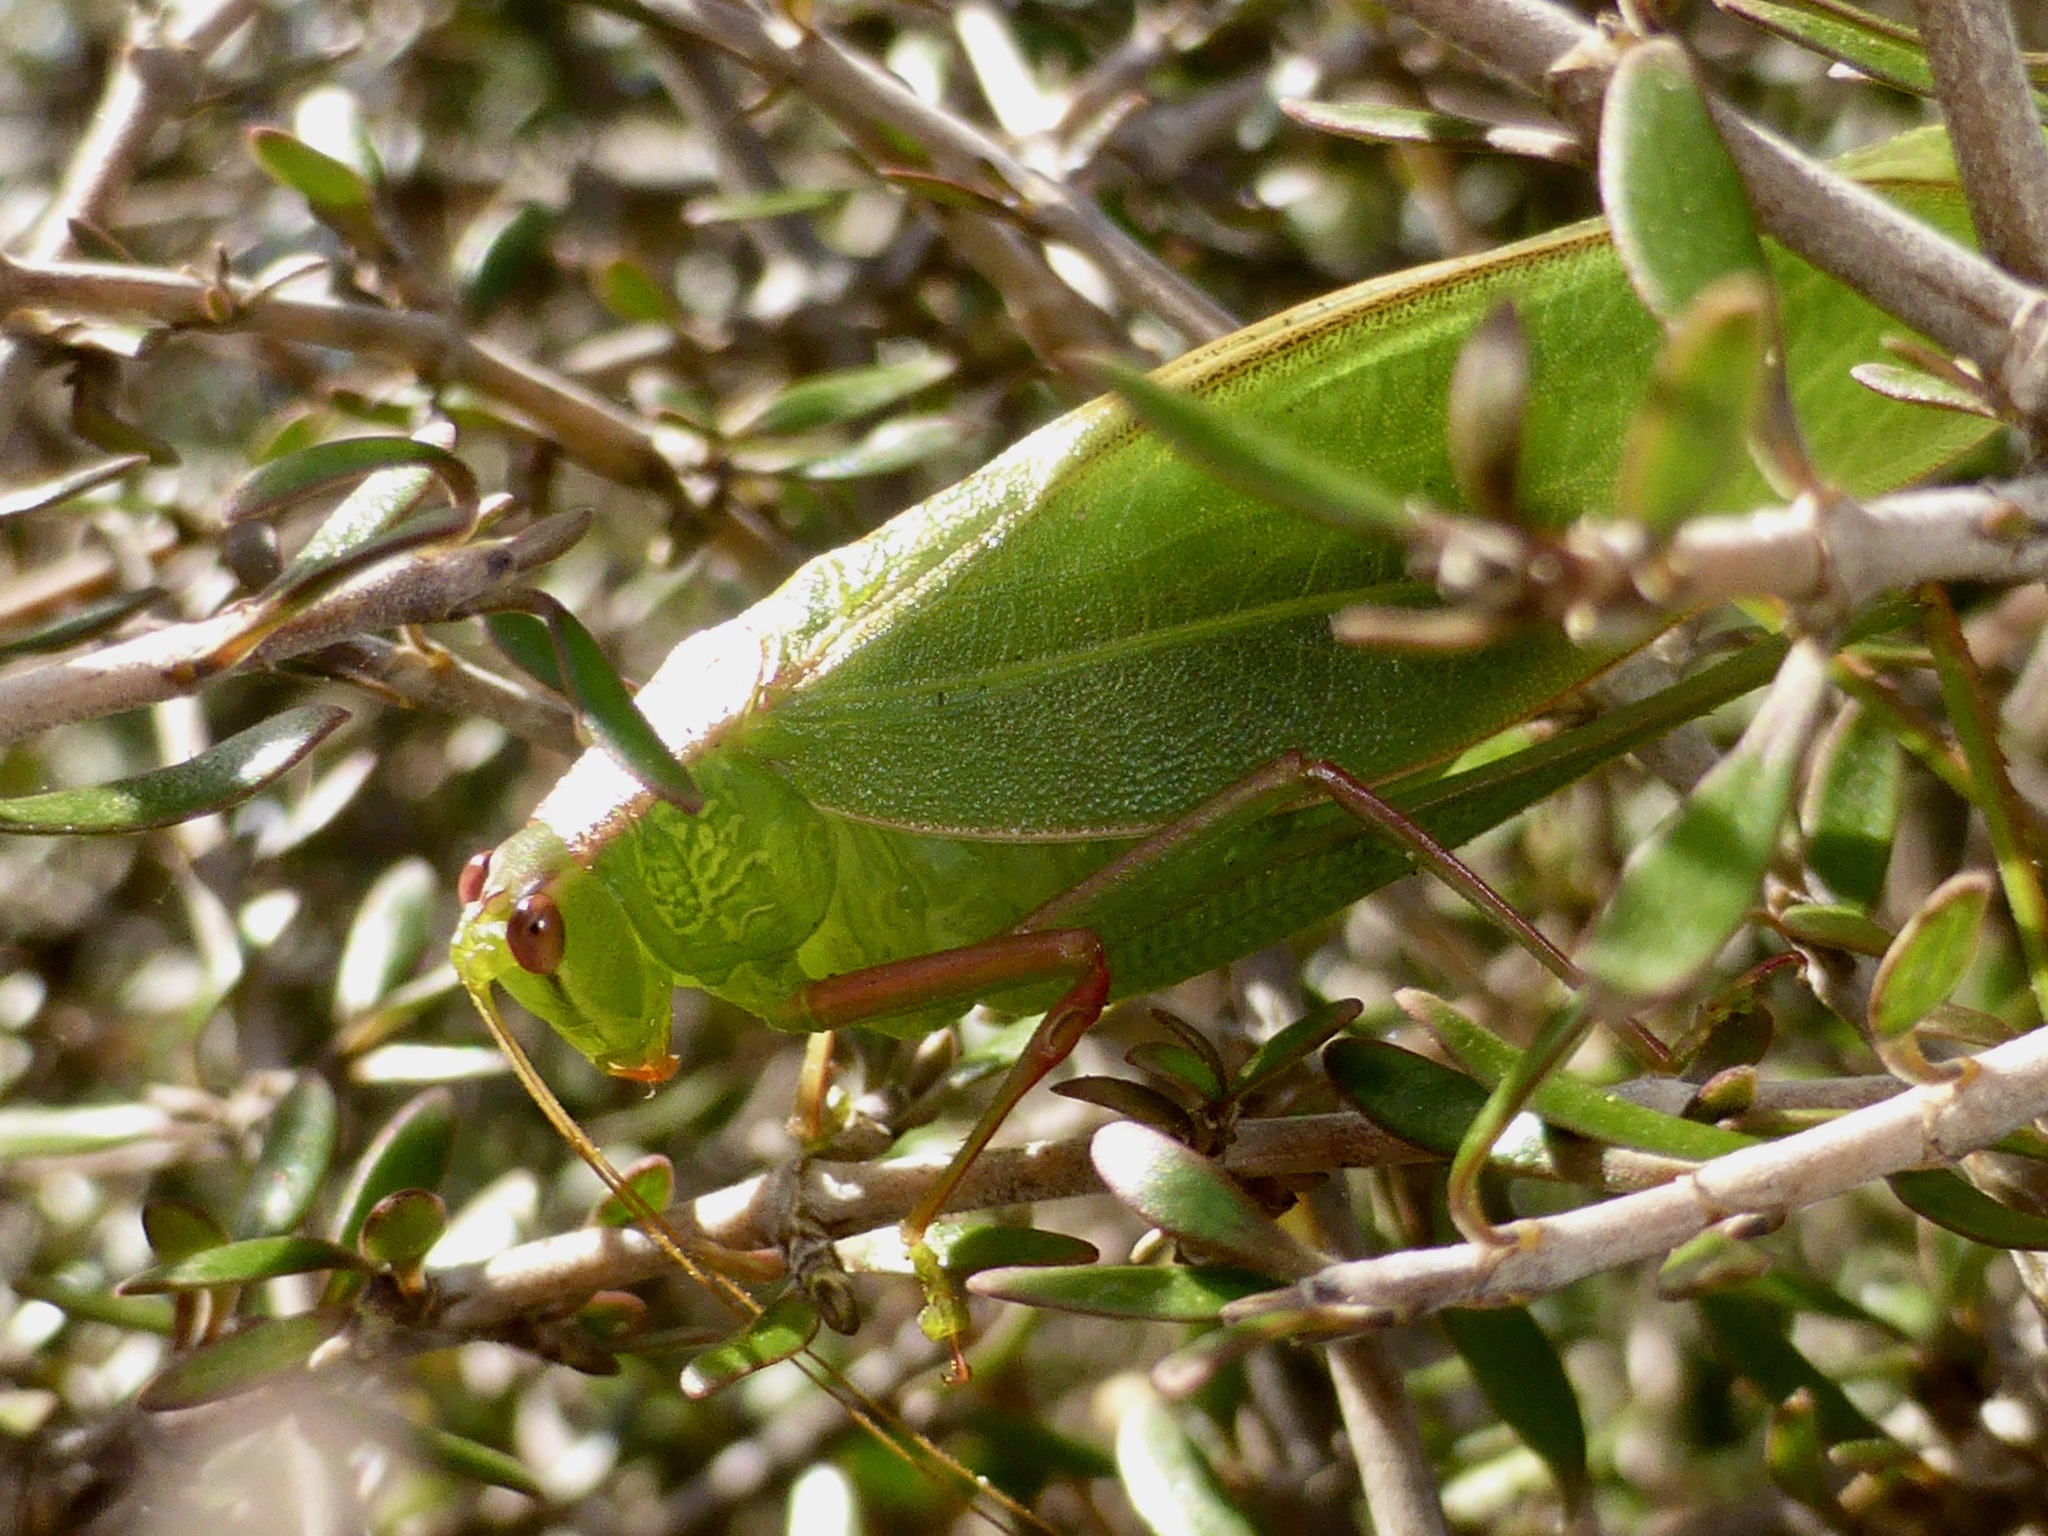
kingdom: Animalia
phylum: Arthropoda
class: Insecta
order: Orthoptera
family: Tettigoniidae
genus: Caedicia
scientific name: Caedicia simplex
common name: Common garden katydid
